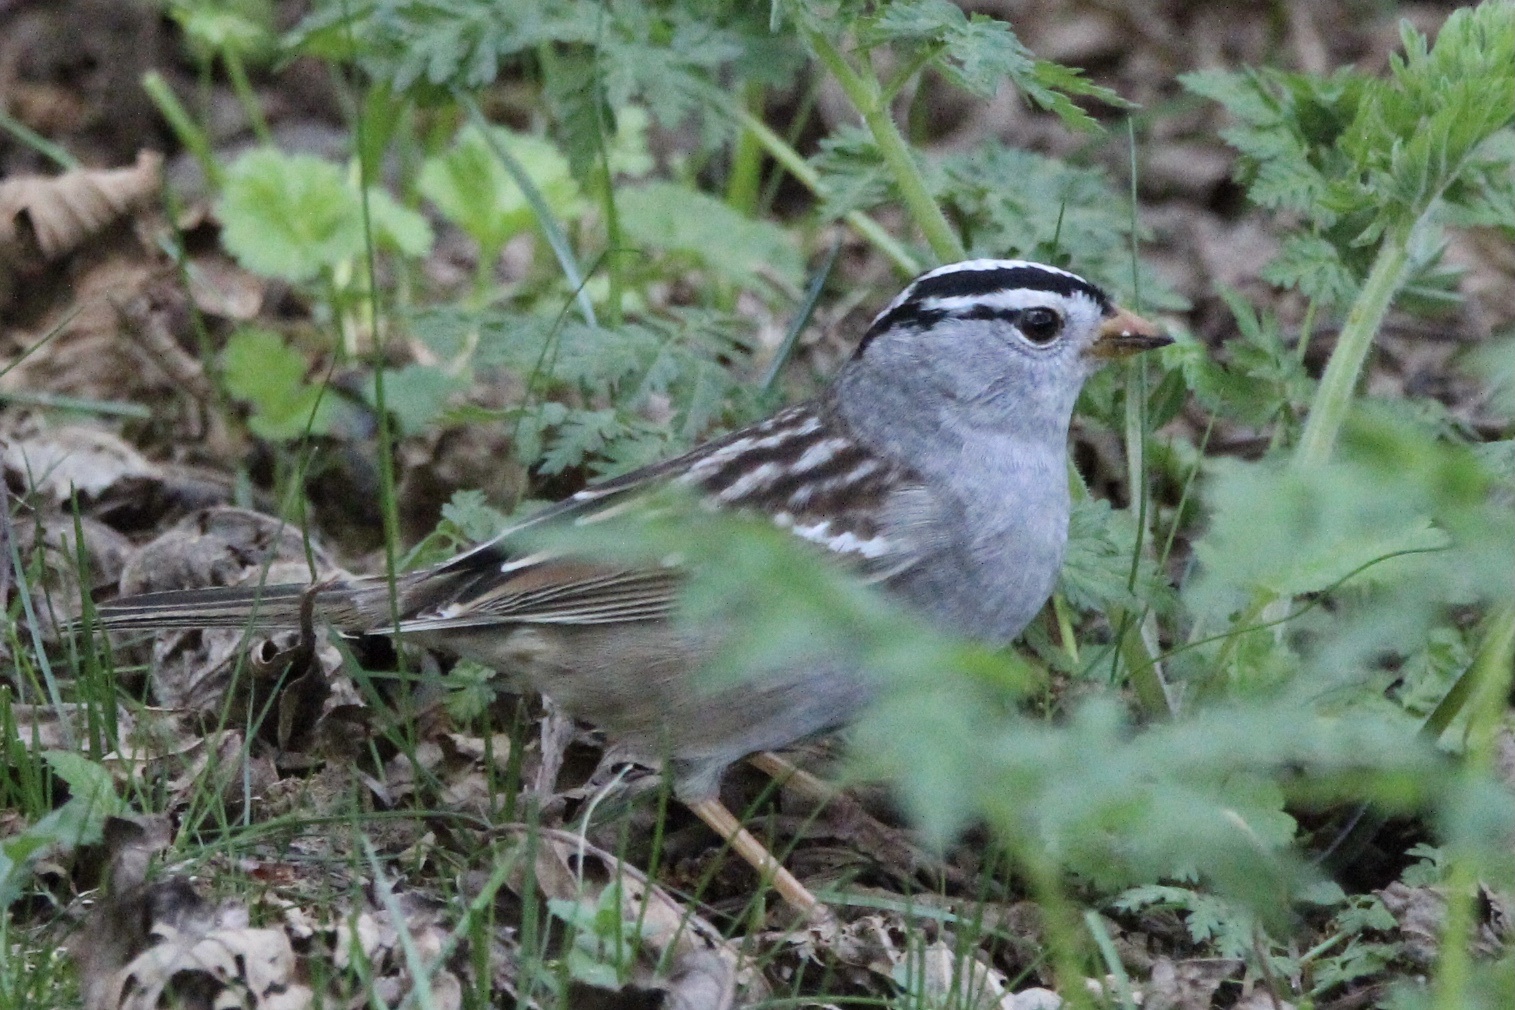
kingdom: Animalia
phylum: Chordata
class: Aves
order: Passeriformes
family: Passerellidae
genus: Zonotrichia
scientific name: Zonotrichia leucophrys
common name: White-crowned sparrow
